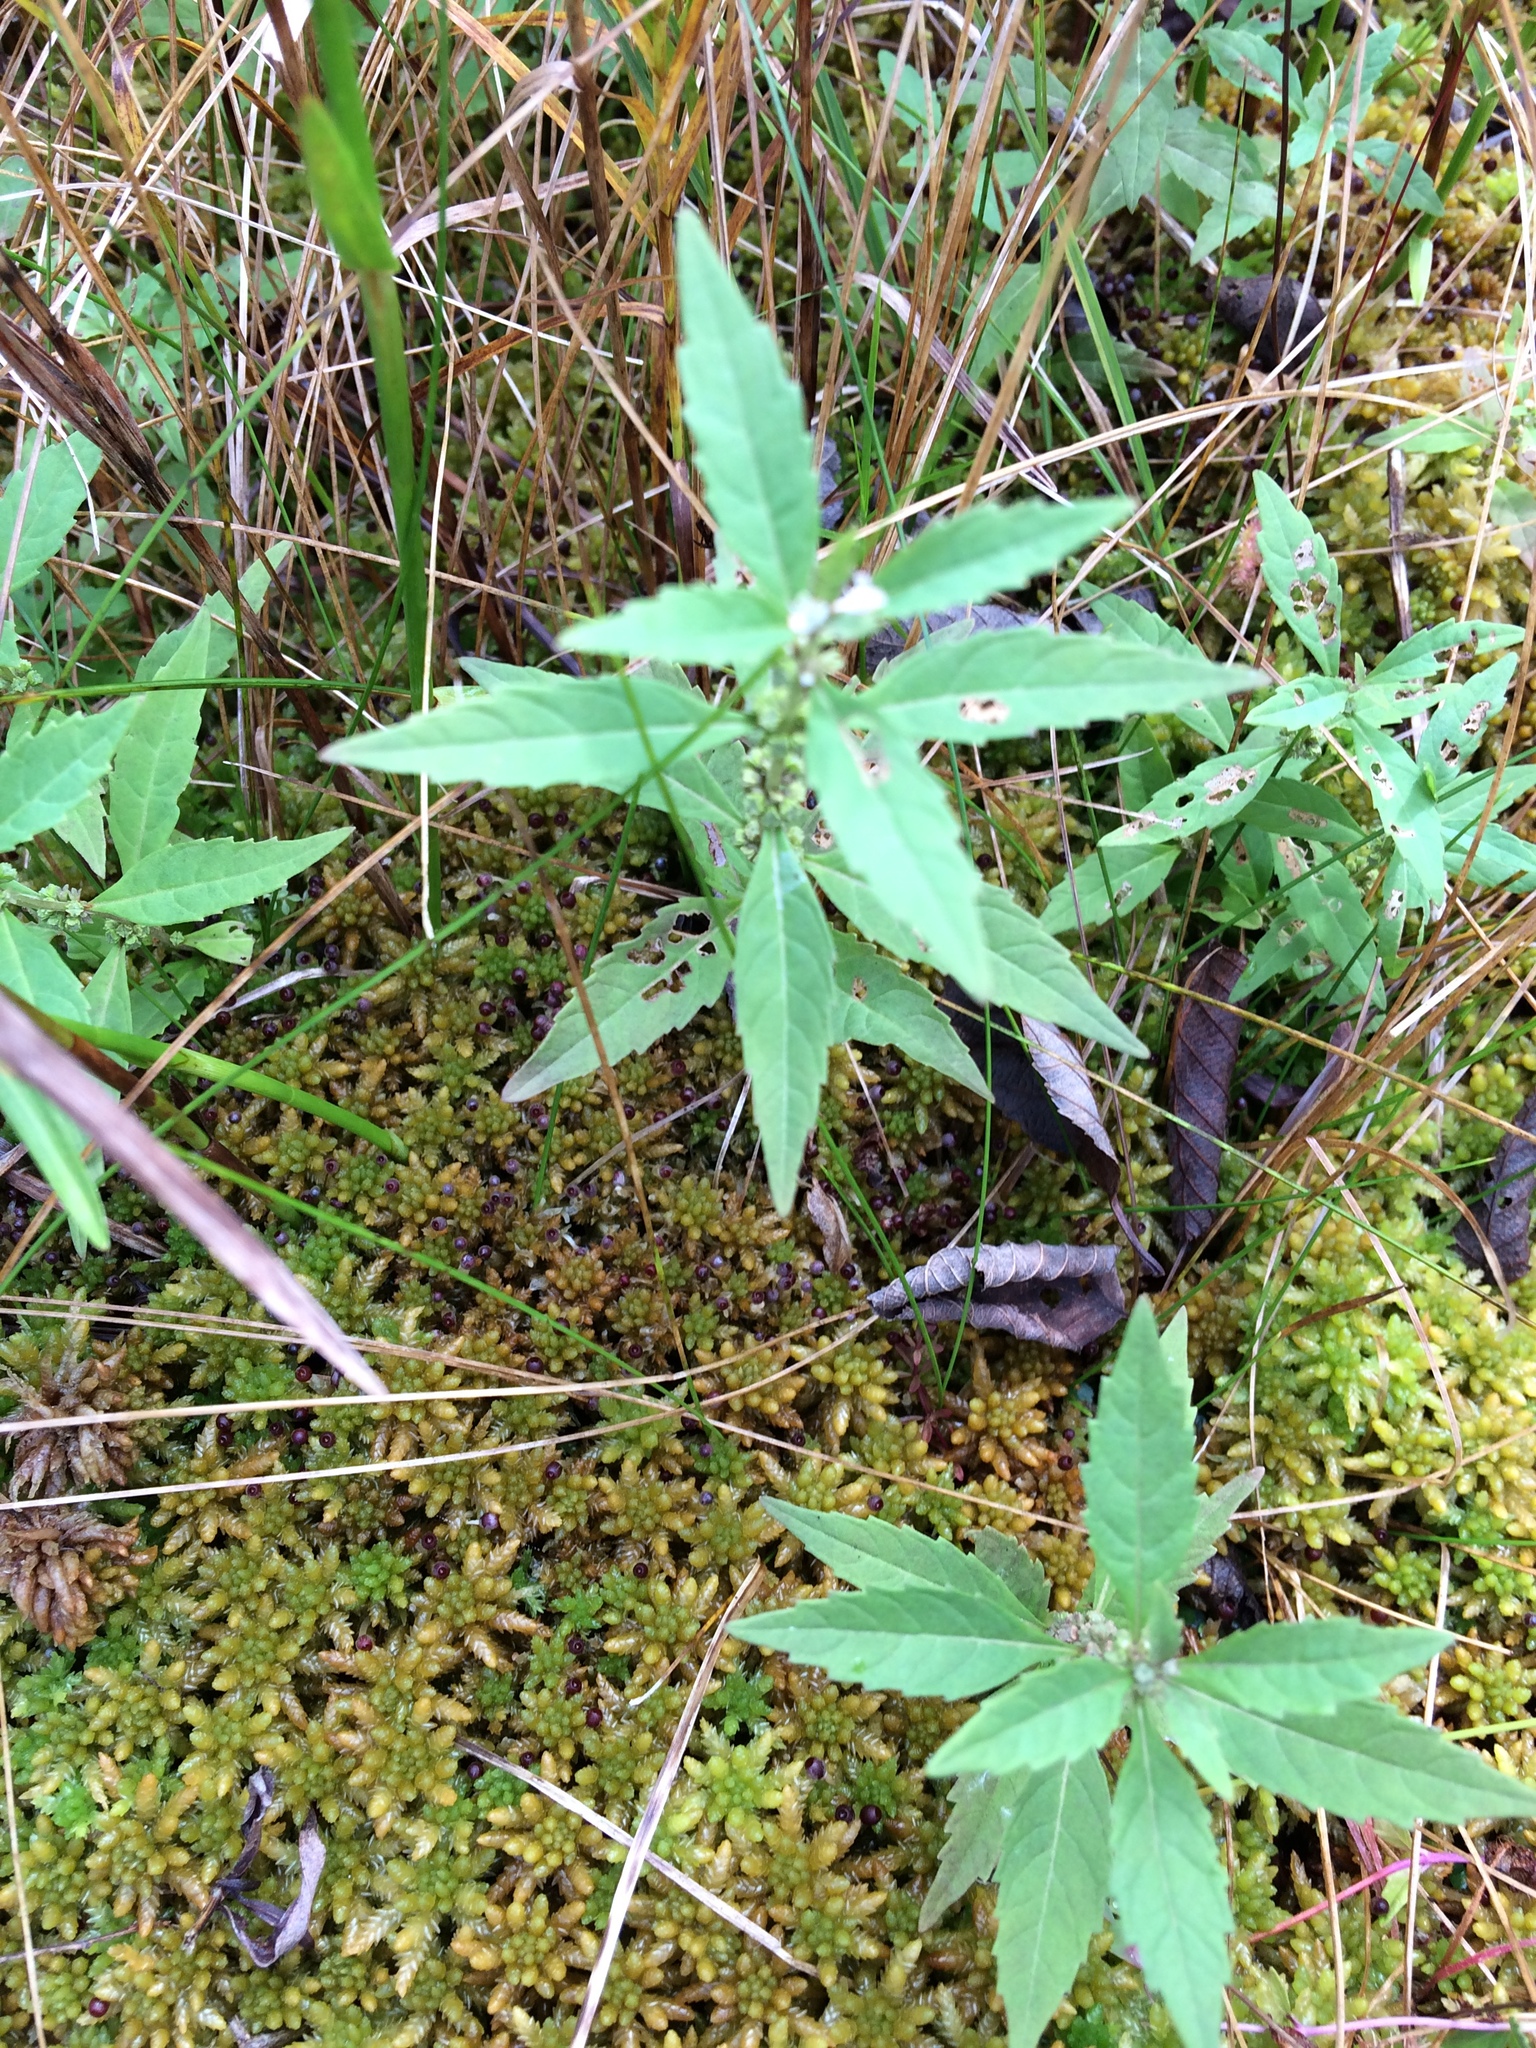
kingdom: Plantae
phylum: Tracheophyta
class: Magnoliopsida
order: Lamiales
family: Lamiaceae
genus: Lycopus
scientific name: Lycopus uniflorus
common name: Northern bugleweed
